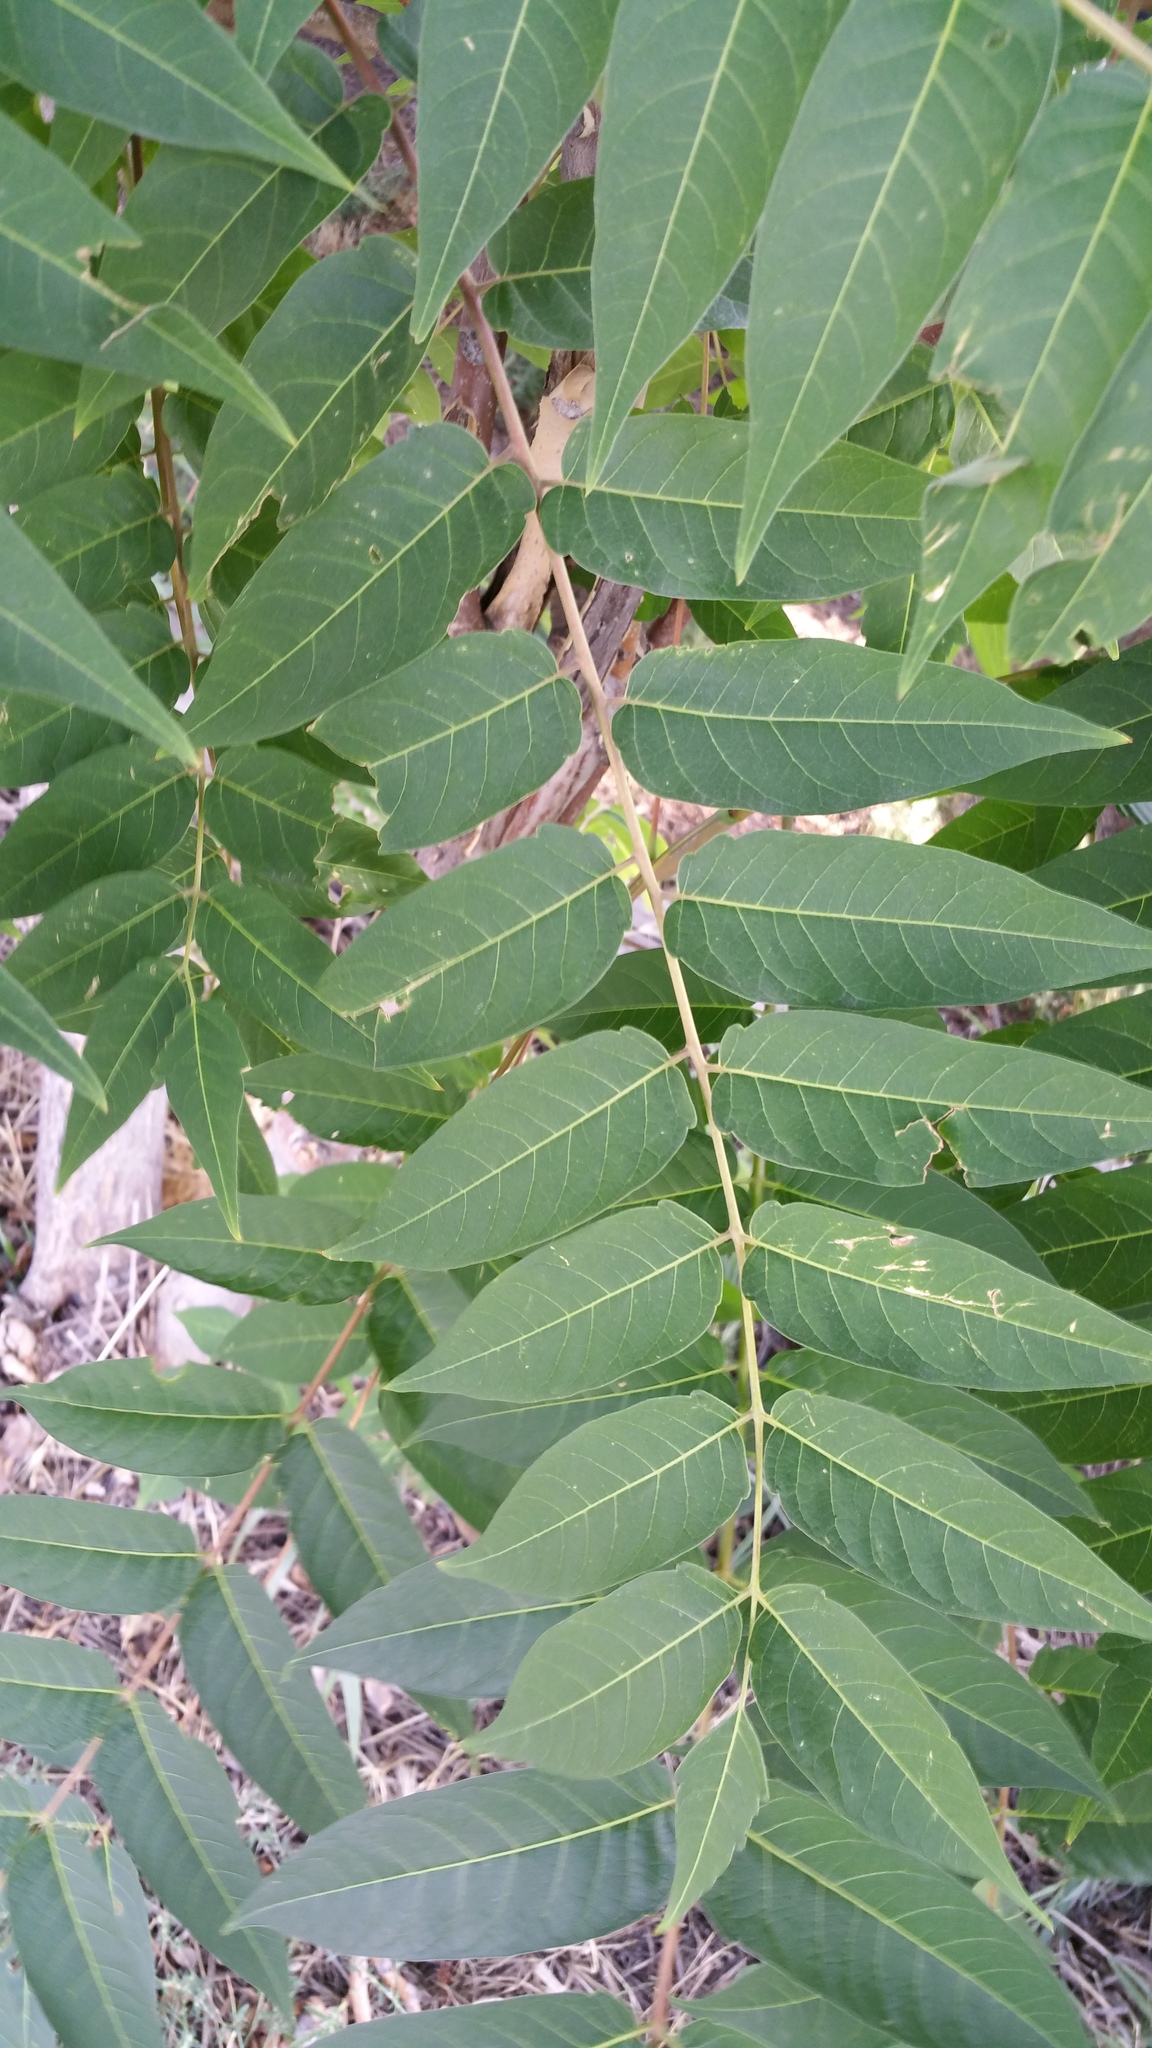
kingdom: Plantae
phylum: Tracheophyta
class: Magnoliopsida
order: Sapindales
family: Simaroubaceae
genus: Ailanthus
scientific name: Ailanthus altissima
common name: Tree-of-heaven
